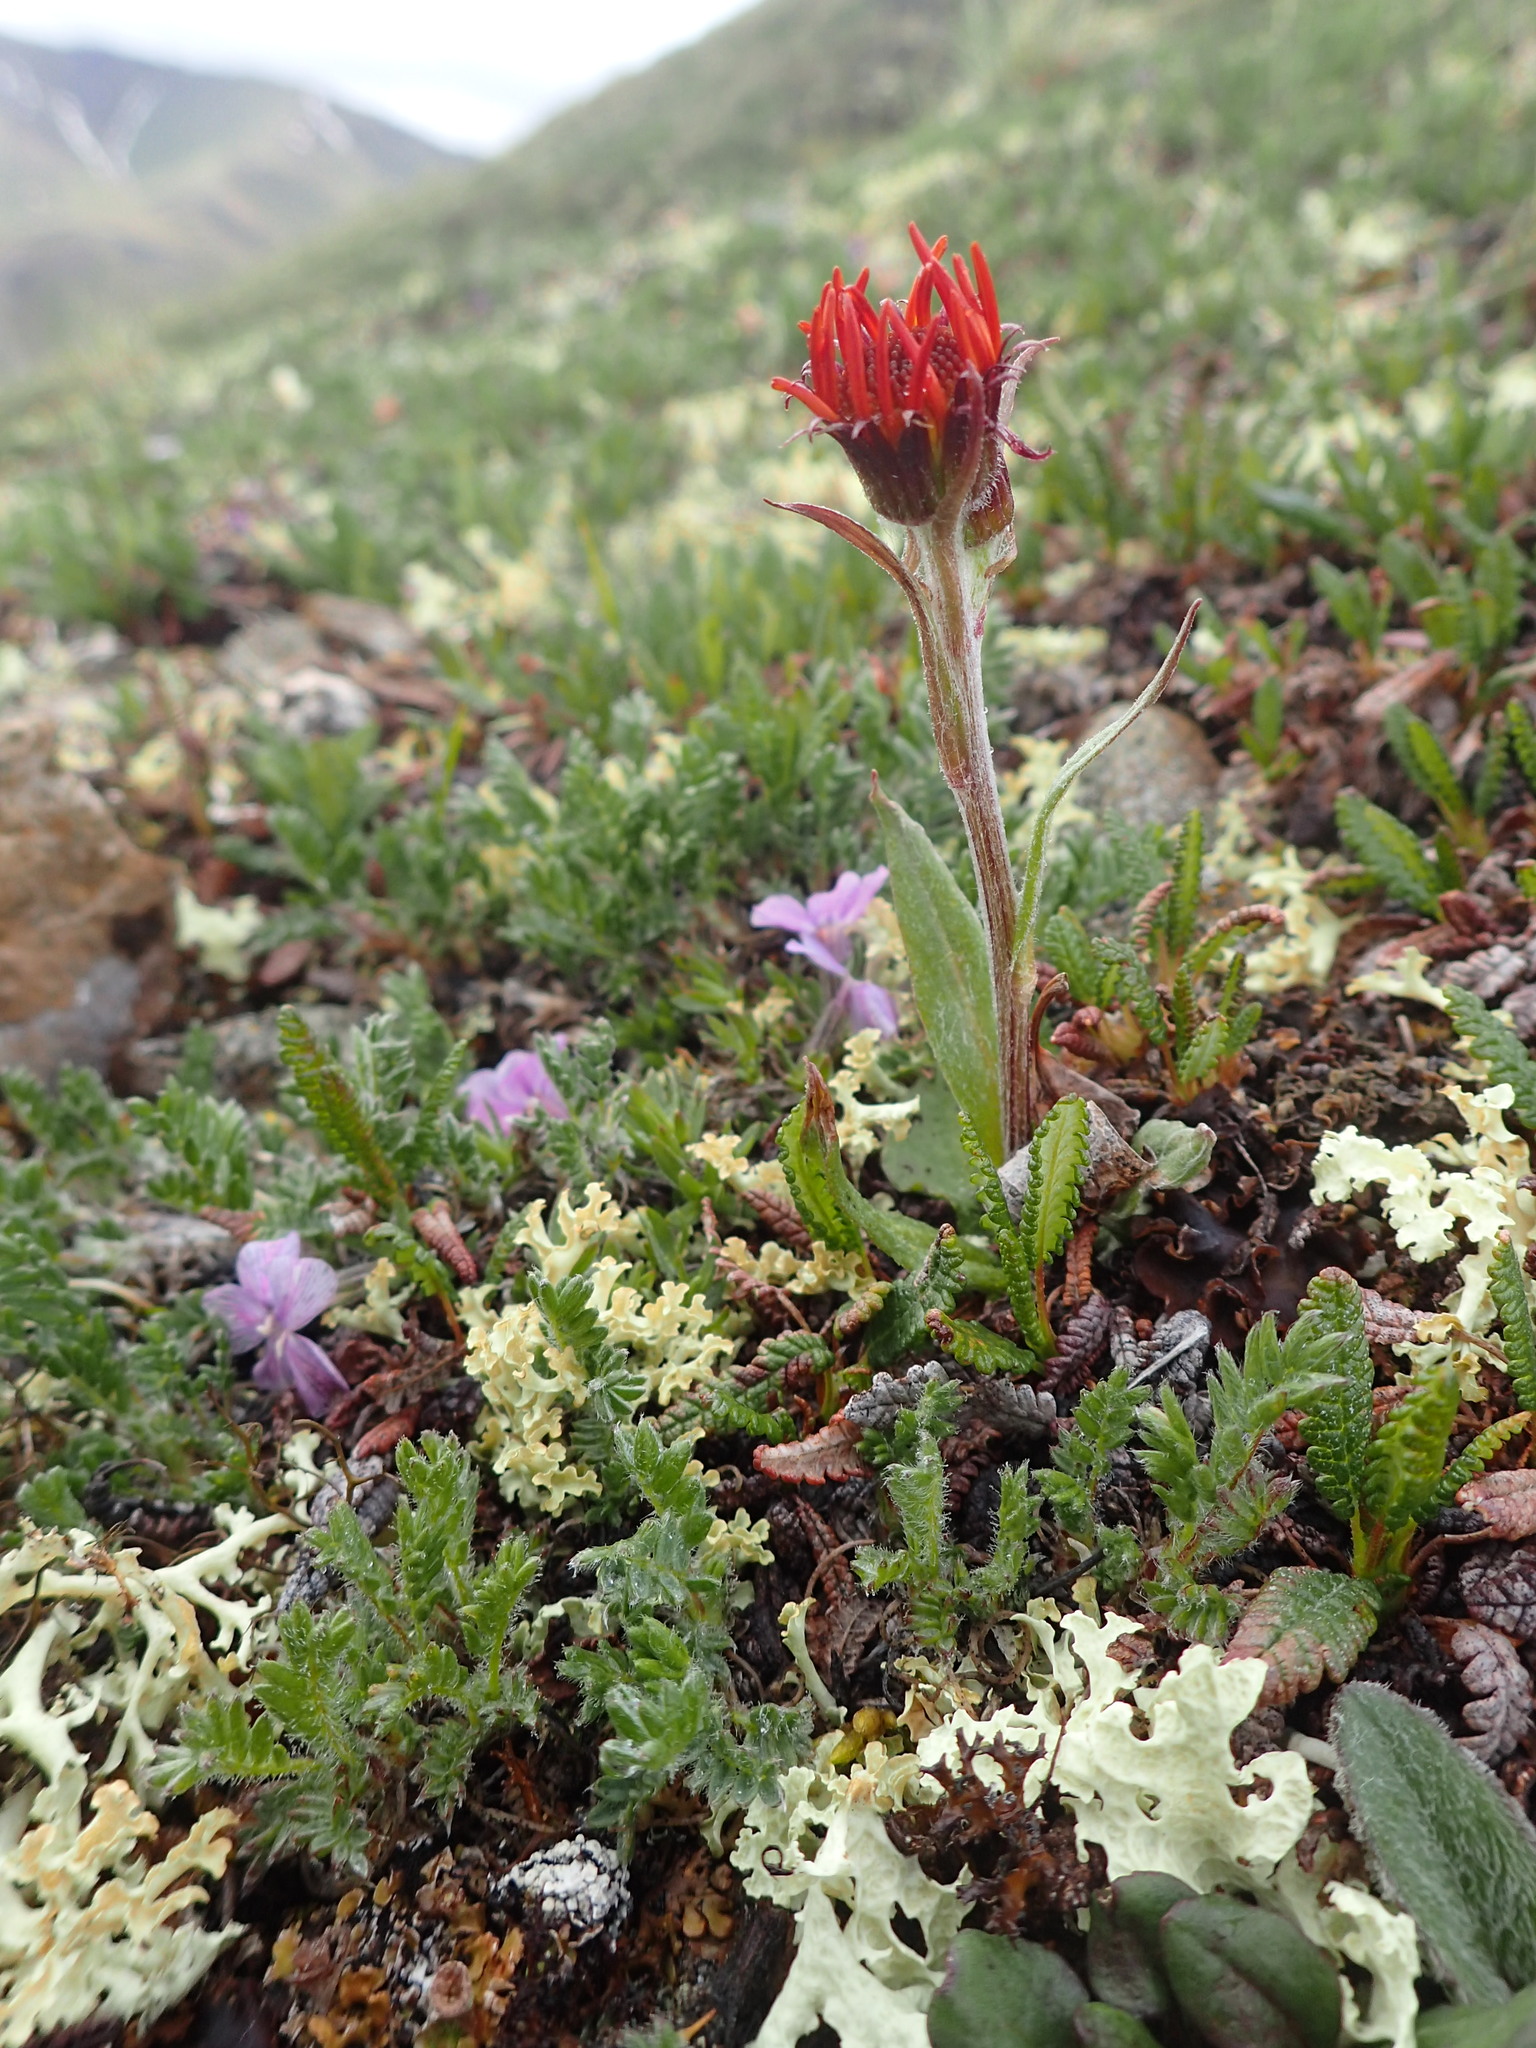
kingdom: Plantae
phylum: Tracheophyta
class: Magnoliopsida
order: Asterales
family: Asteraceae
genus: Tephroseris
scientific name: Tephroseris lindstroemii
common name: Lindström's groundsel
